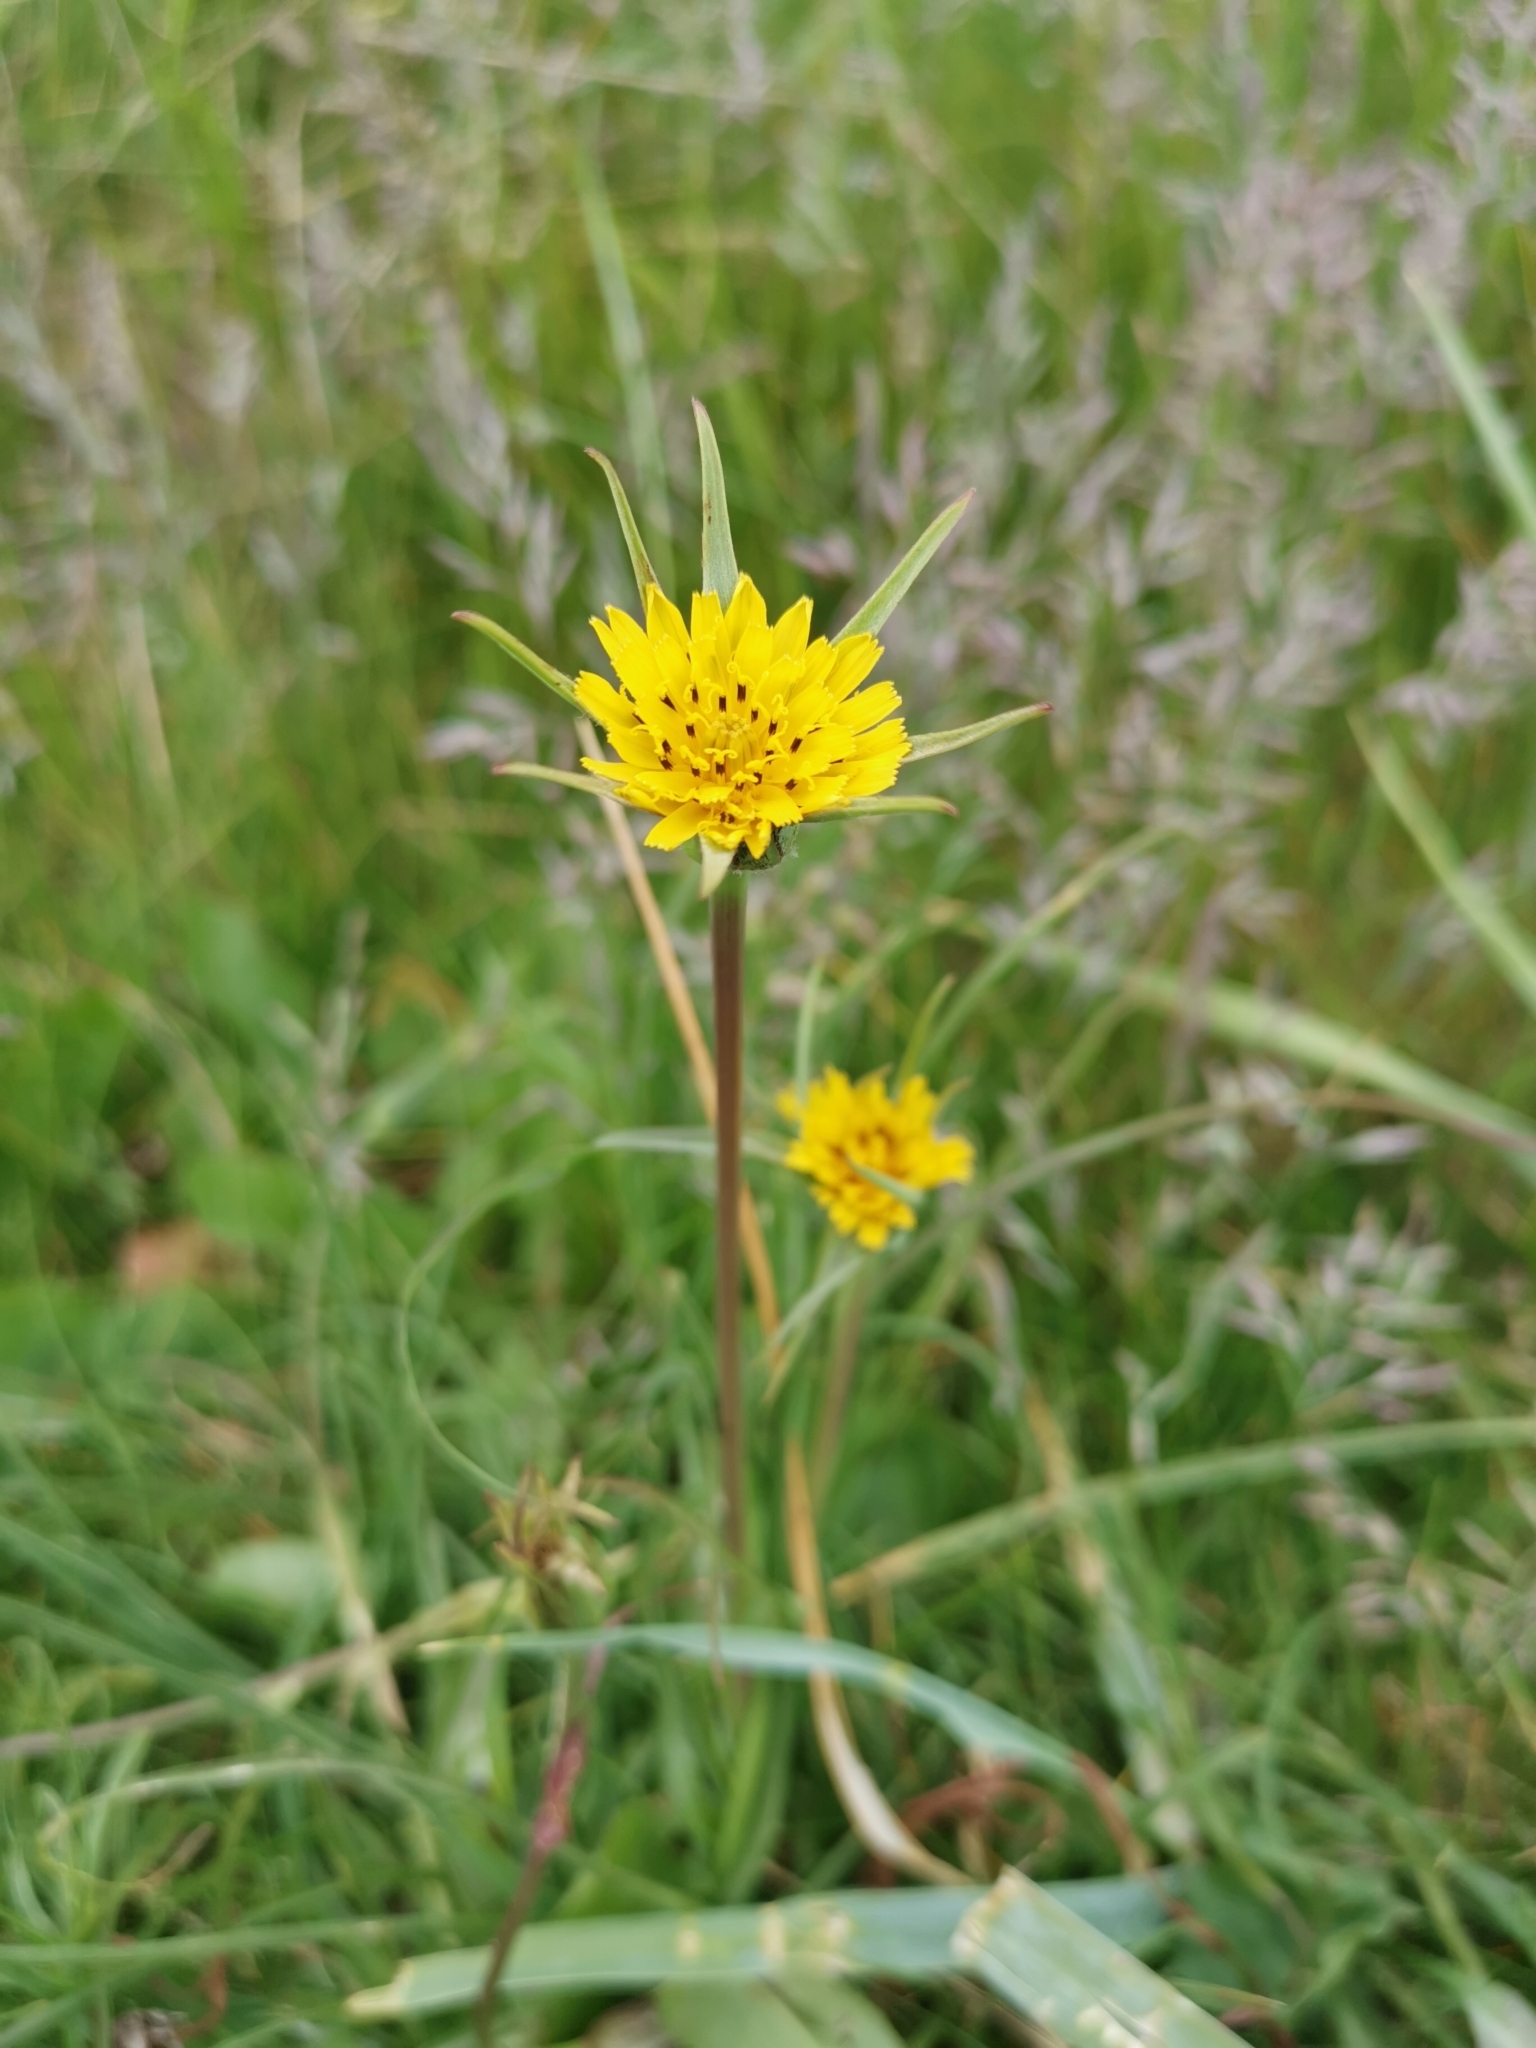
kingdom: Plantae
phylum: Tracheophyta
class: Magnoliopsida
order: Asterales
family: Asteraceae
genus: Tragopogon
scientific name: Tragopogon pratensis
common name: Goat's-beard
